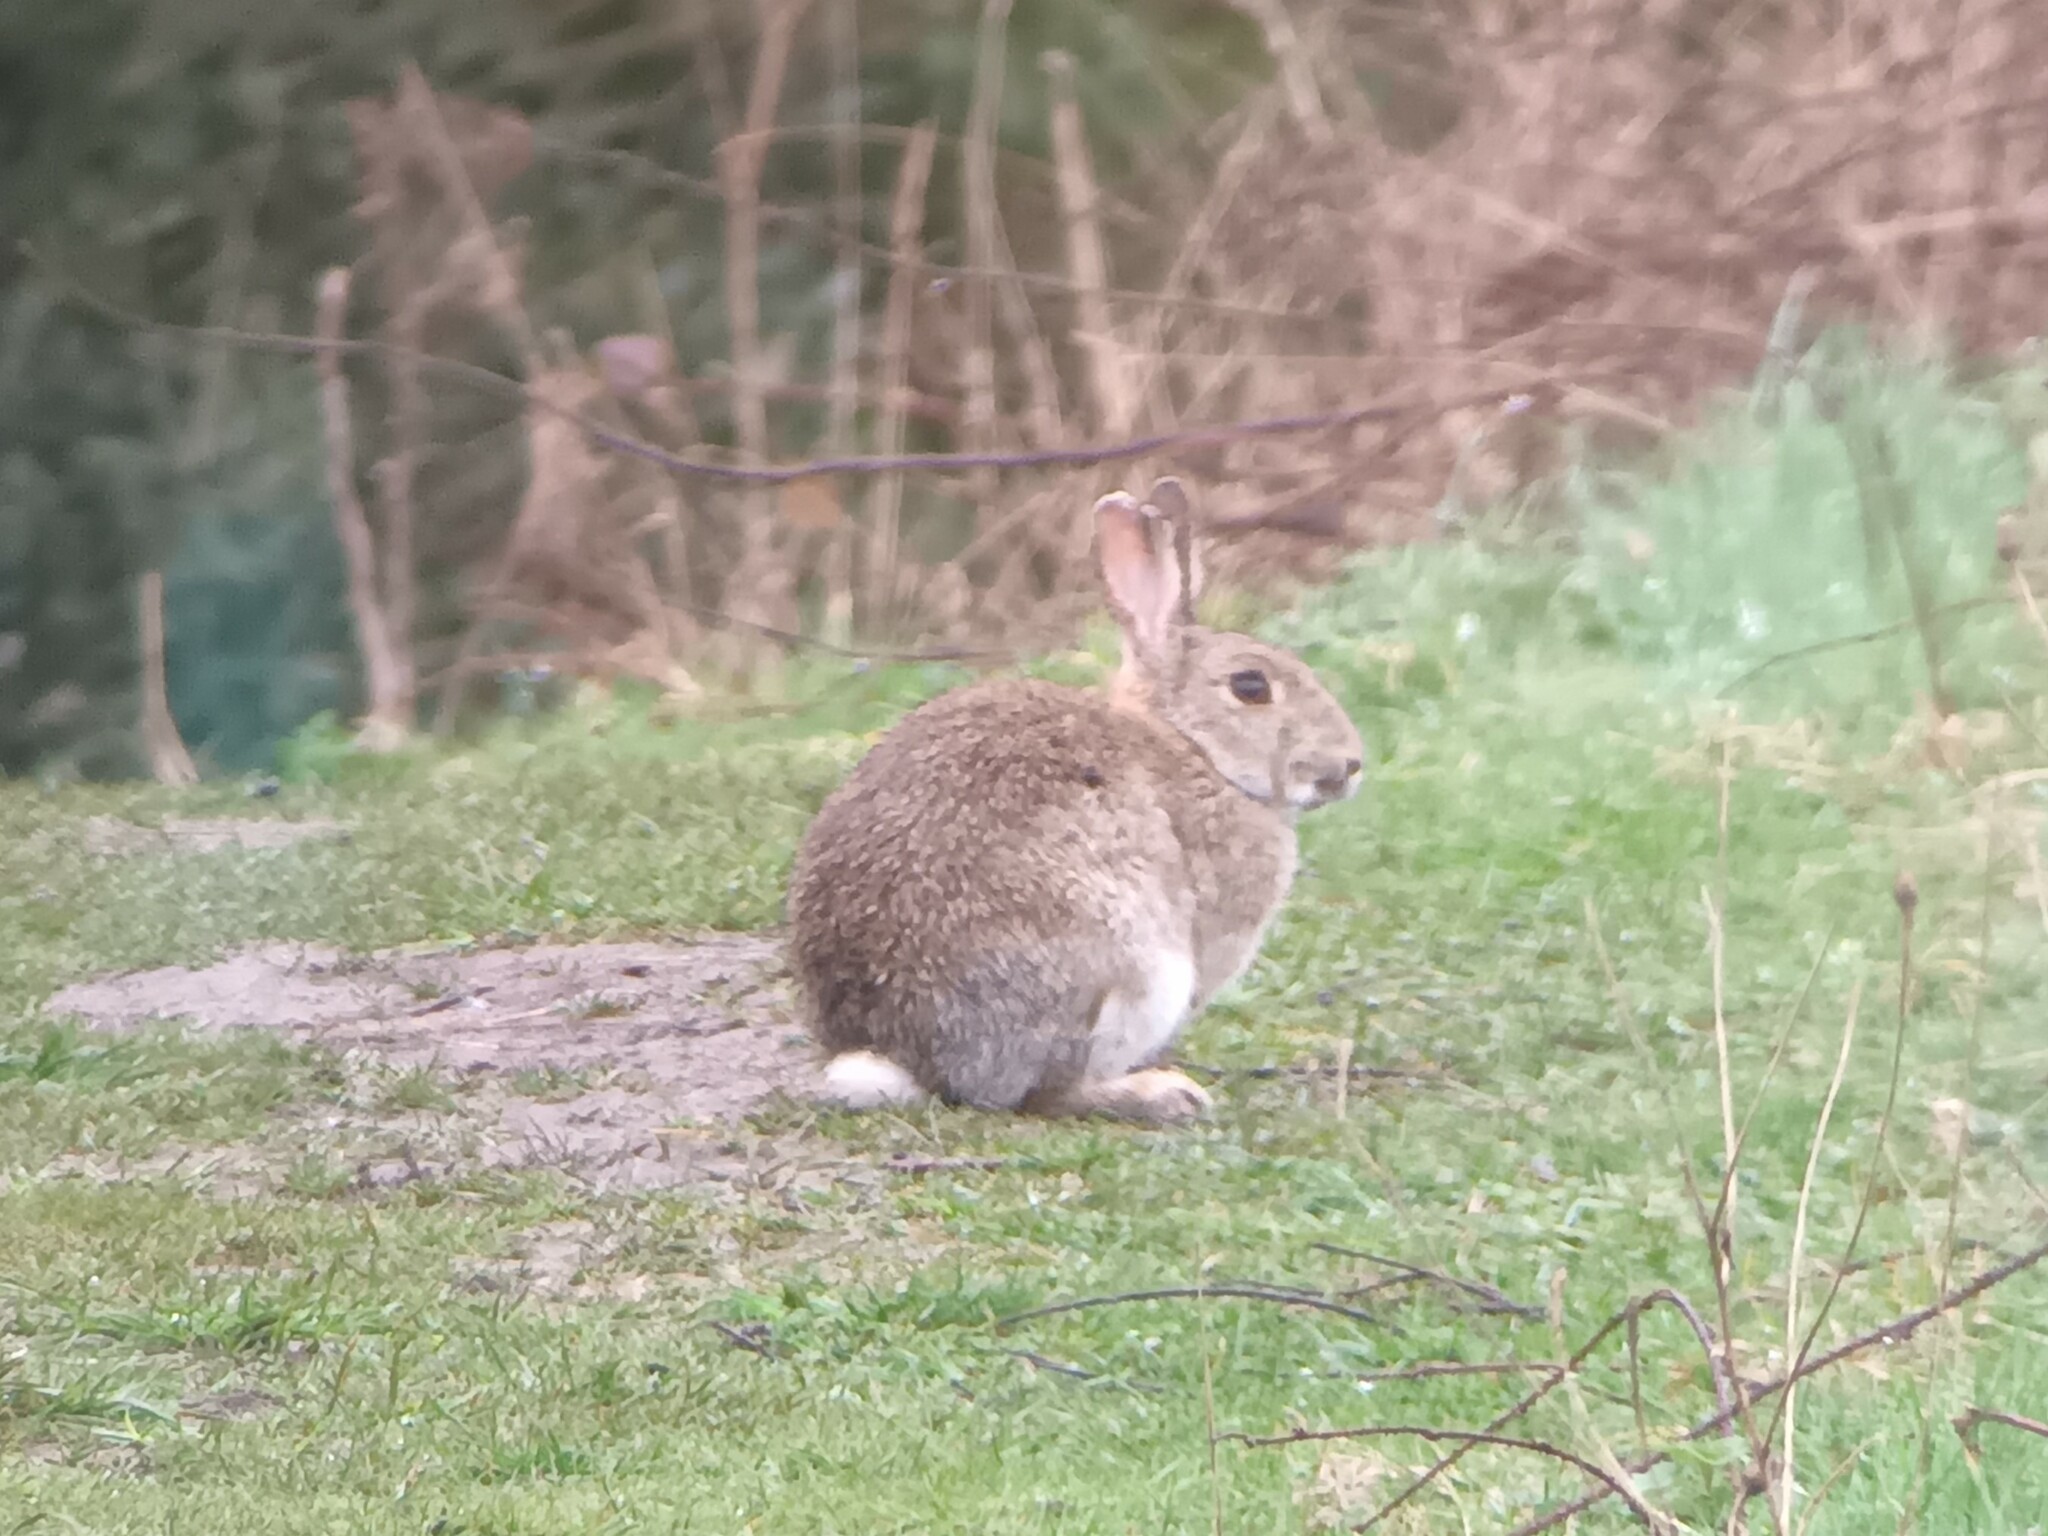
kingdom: Animalia
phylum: Chordata
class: Mammalia
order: Lagomorpha
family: Leporidae
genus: Oryctolagus
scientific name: Oryctolagus cuniculus
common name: European rabbit
